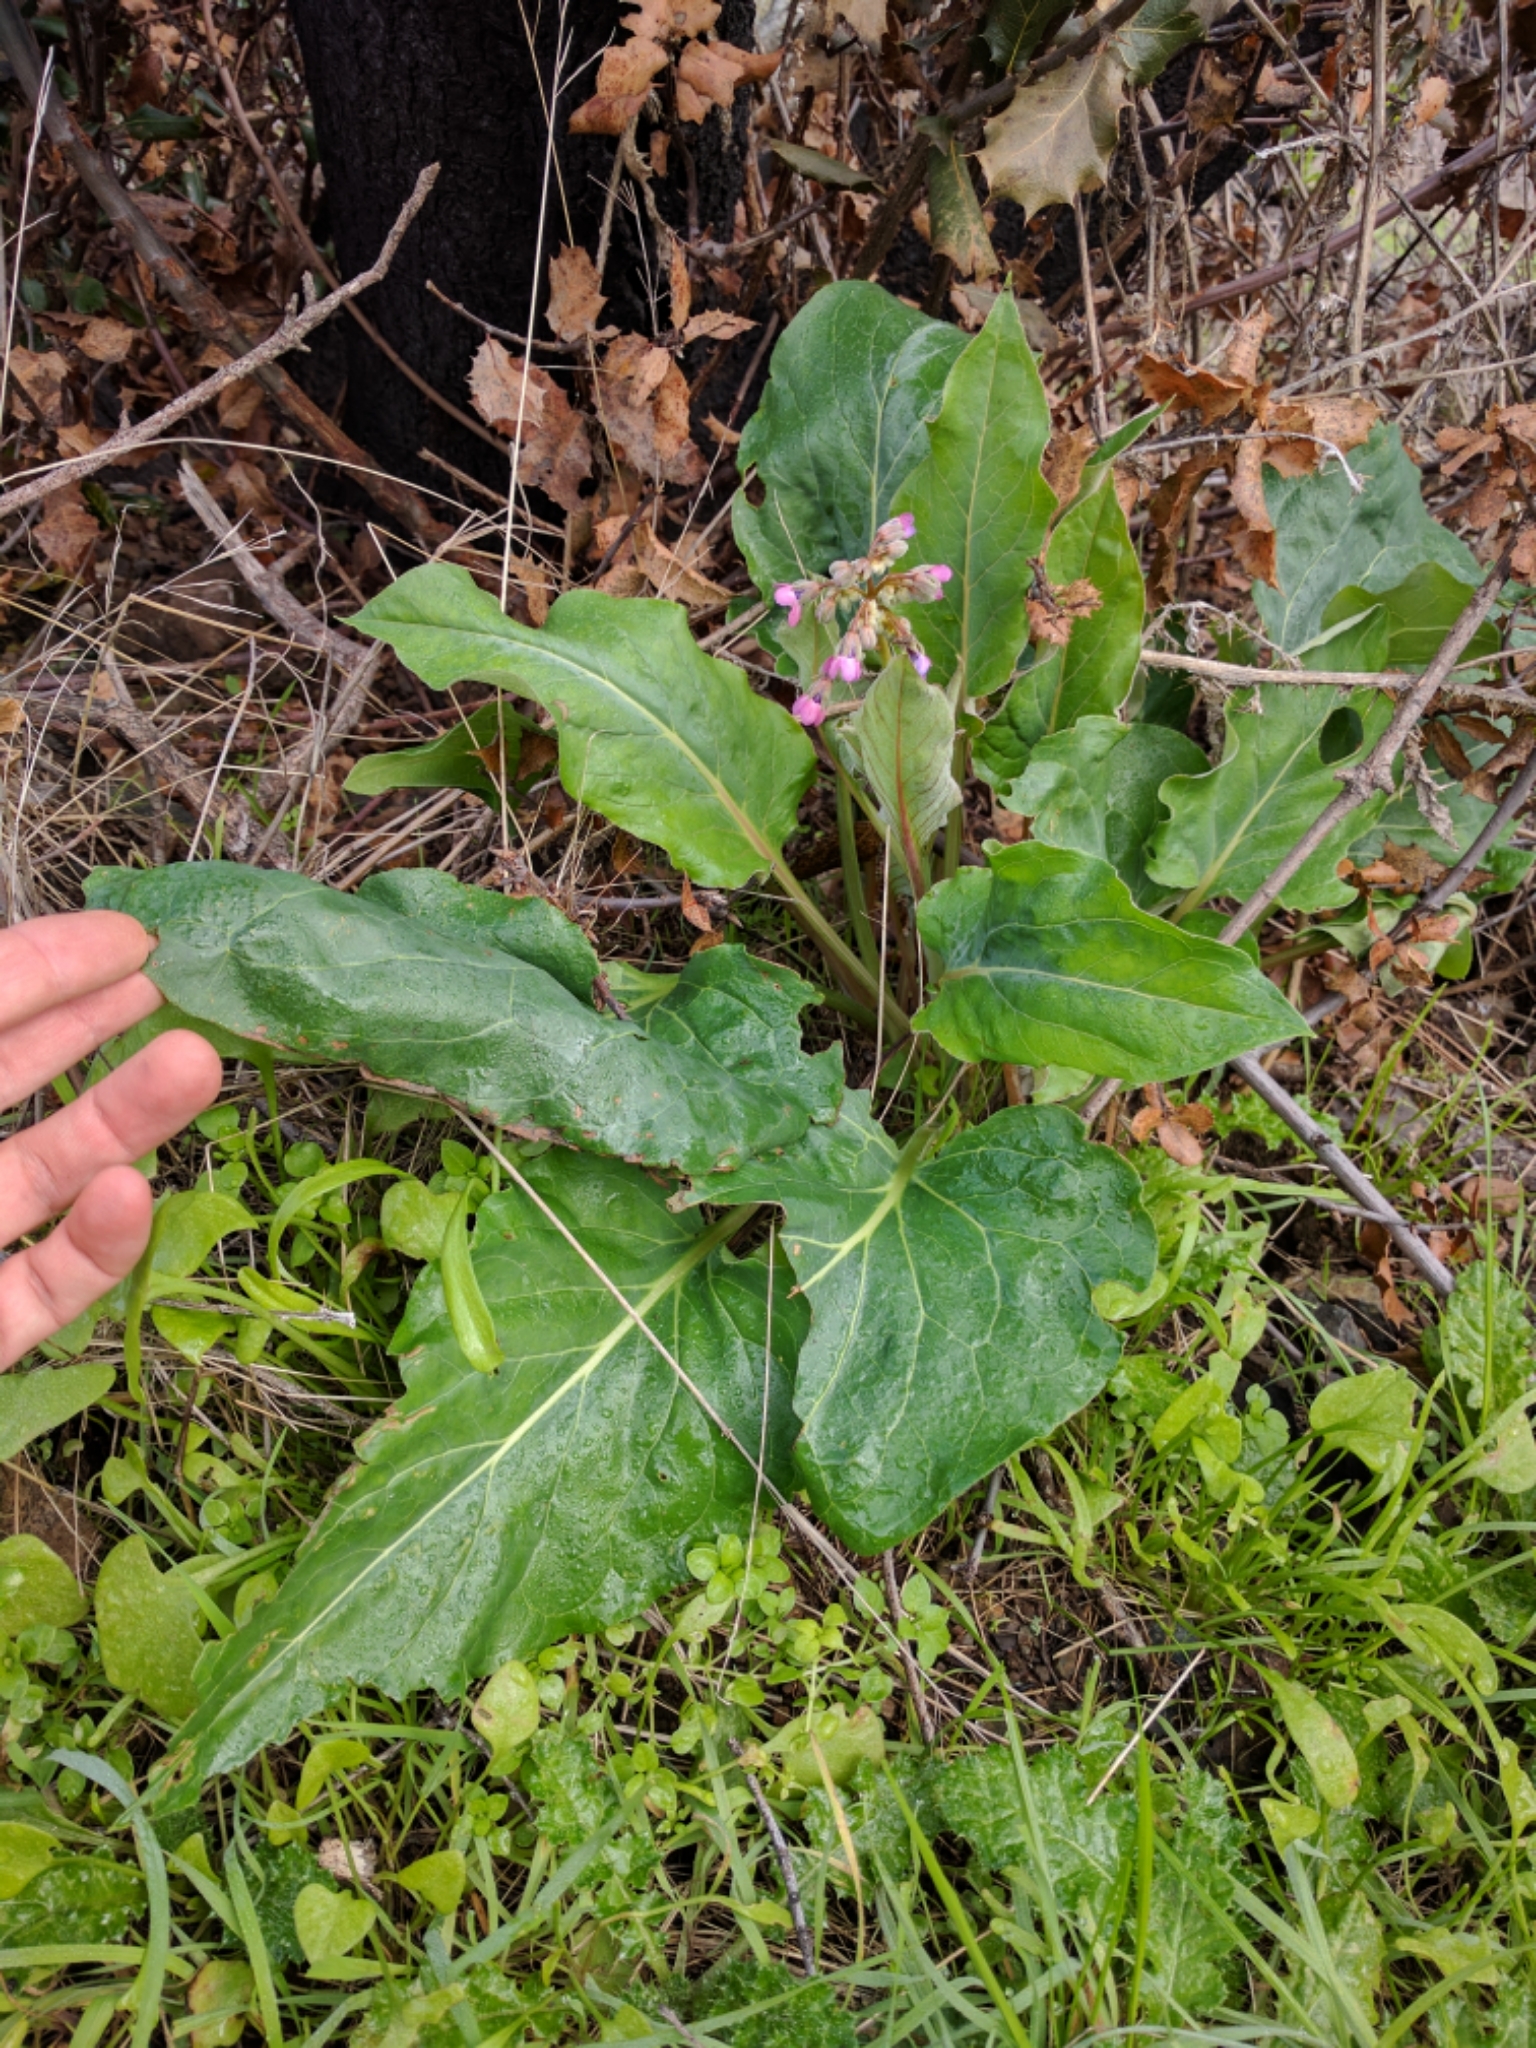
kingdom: Plantae
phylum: Tracheophyta
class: Magnoliopsida
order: Boraginales
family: Boraginaceae
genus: Adelinia
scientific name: Adelinia grande
